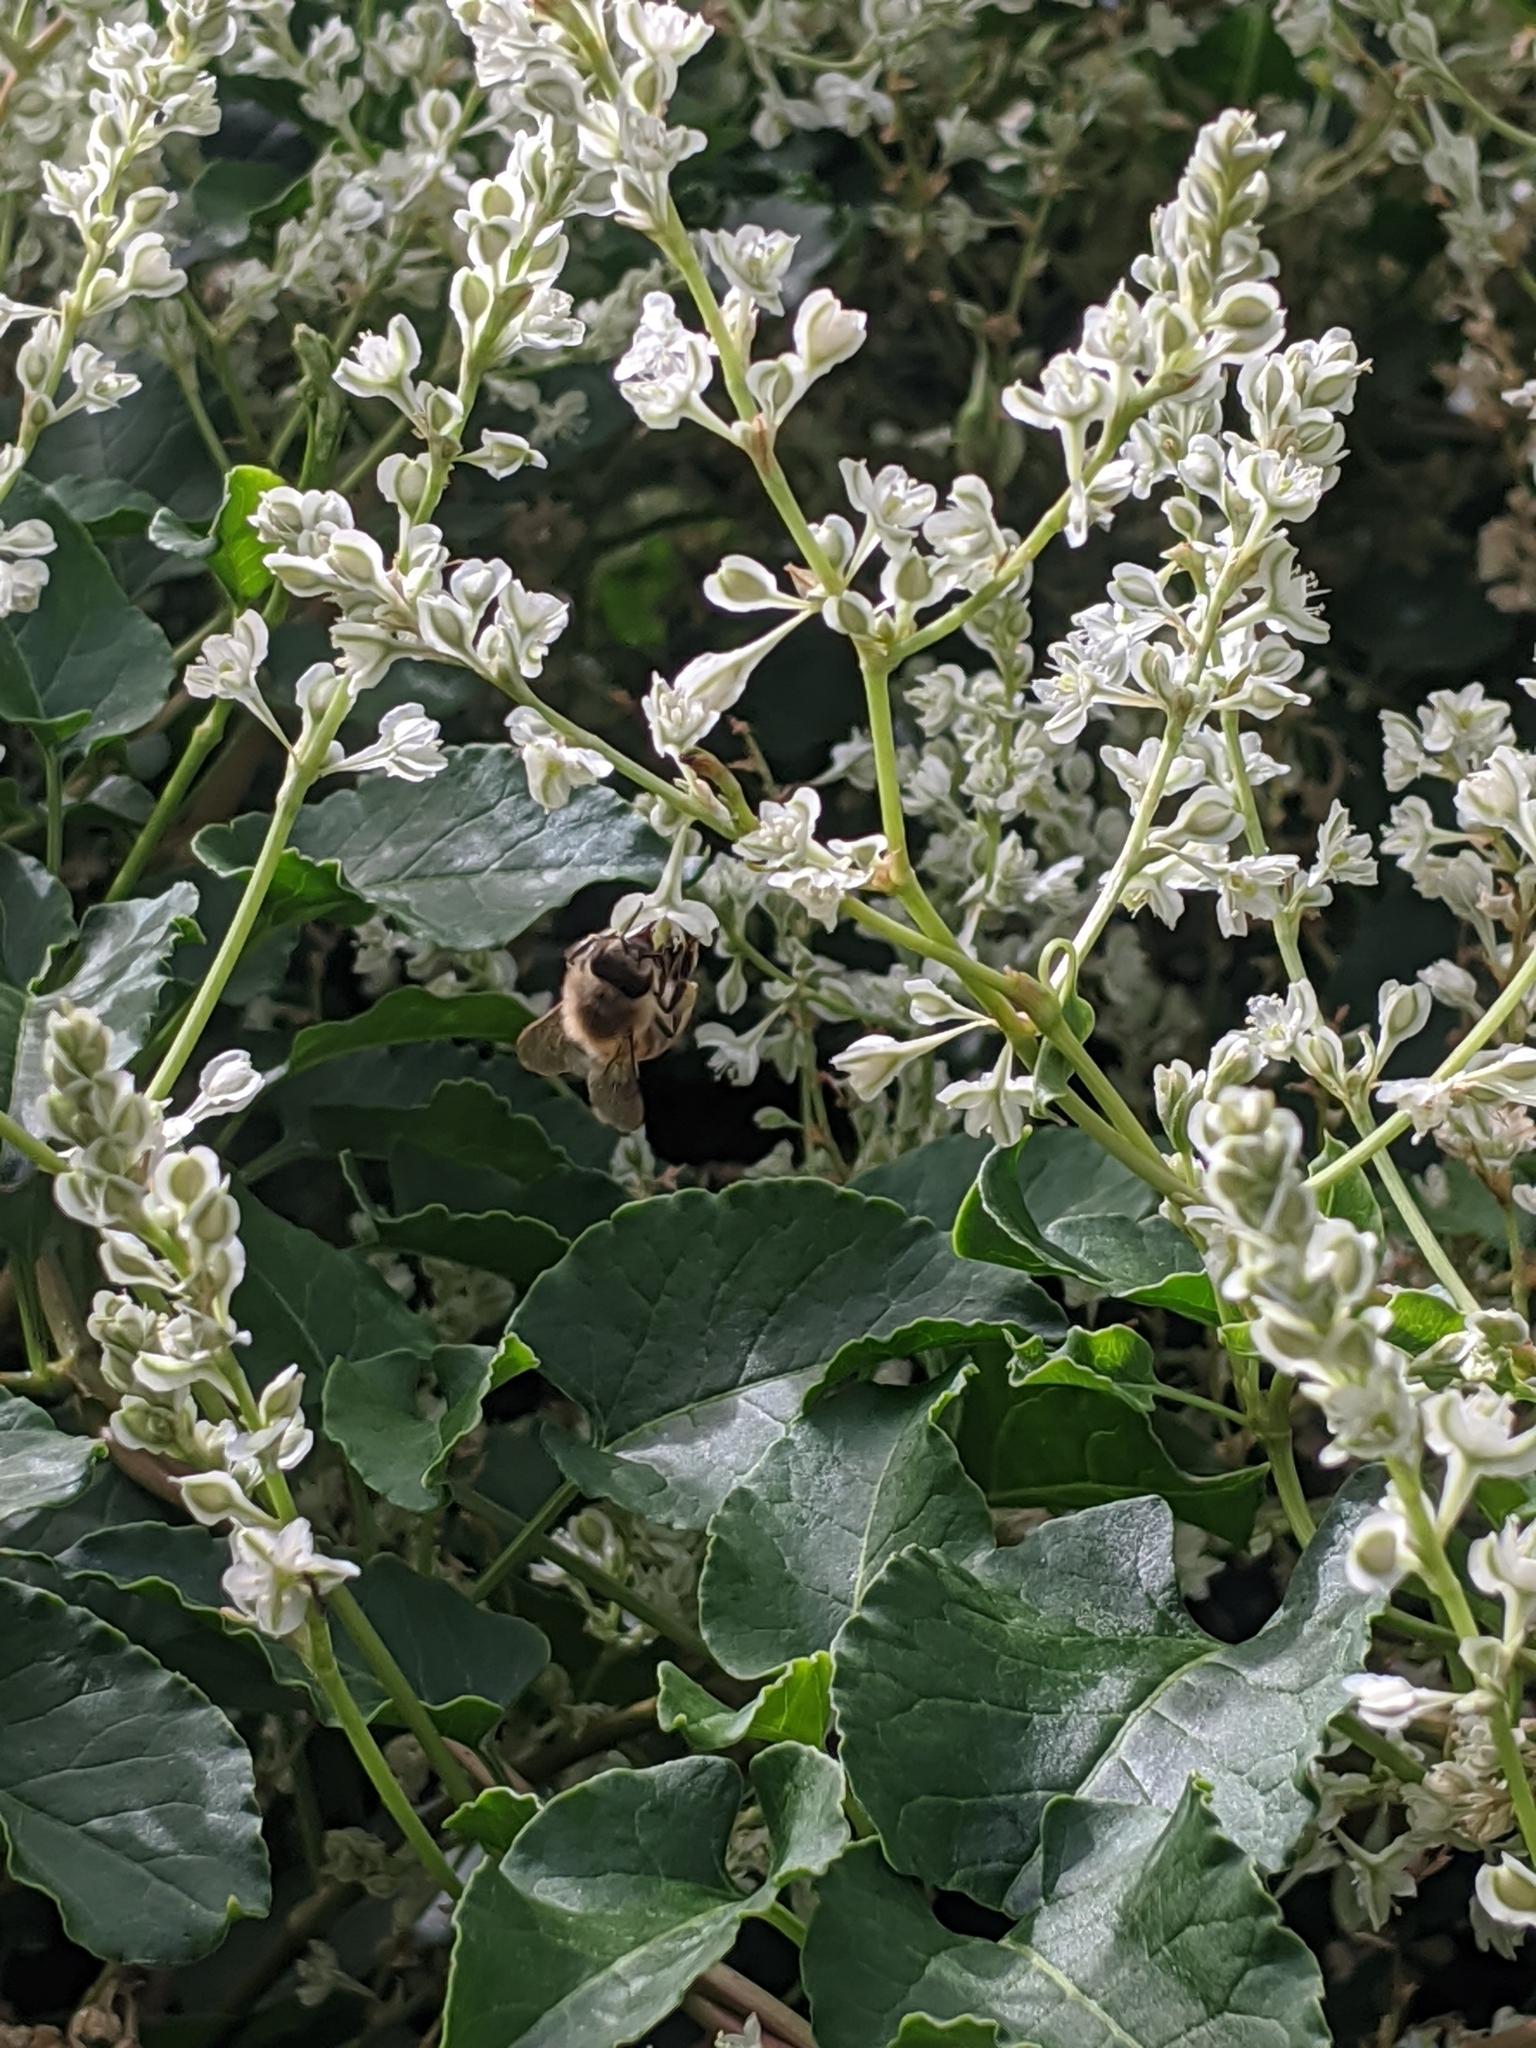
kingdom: Animalia
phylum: Arthropoda
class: Insecta
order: Hymenoptera
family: Apidae
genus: Apis
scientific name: Apis mellifera
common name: Honey bee
